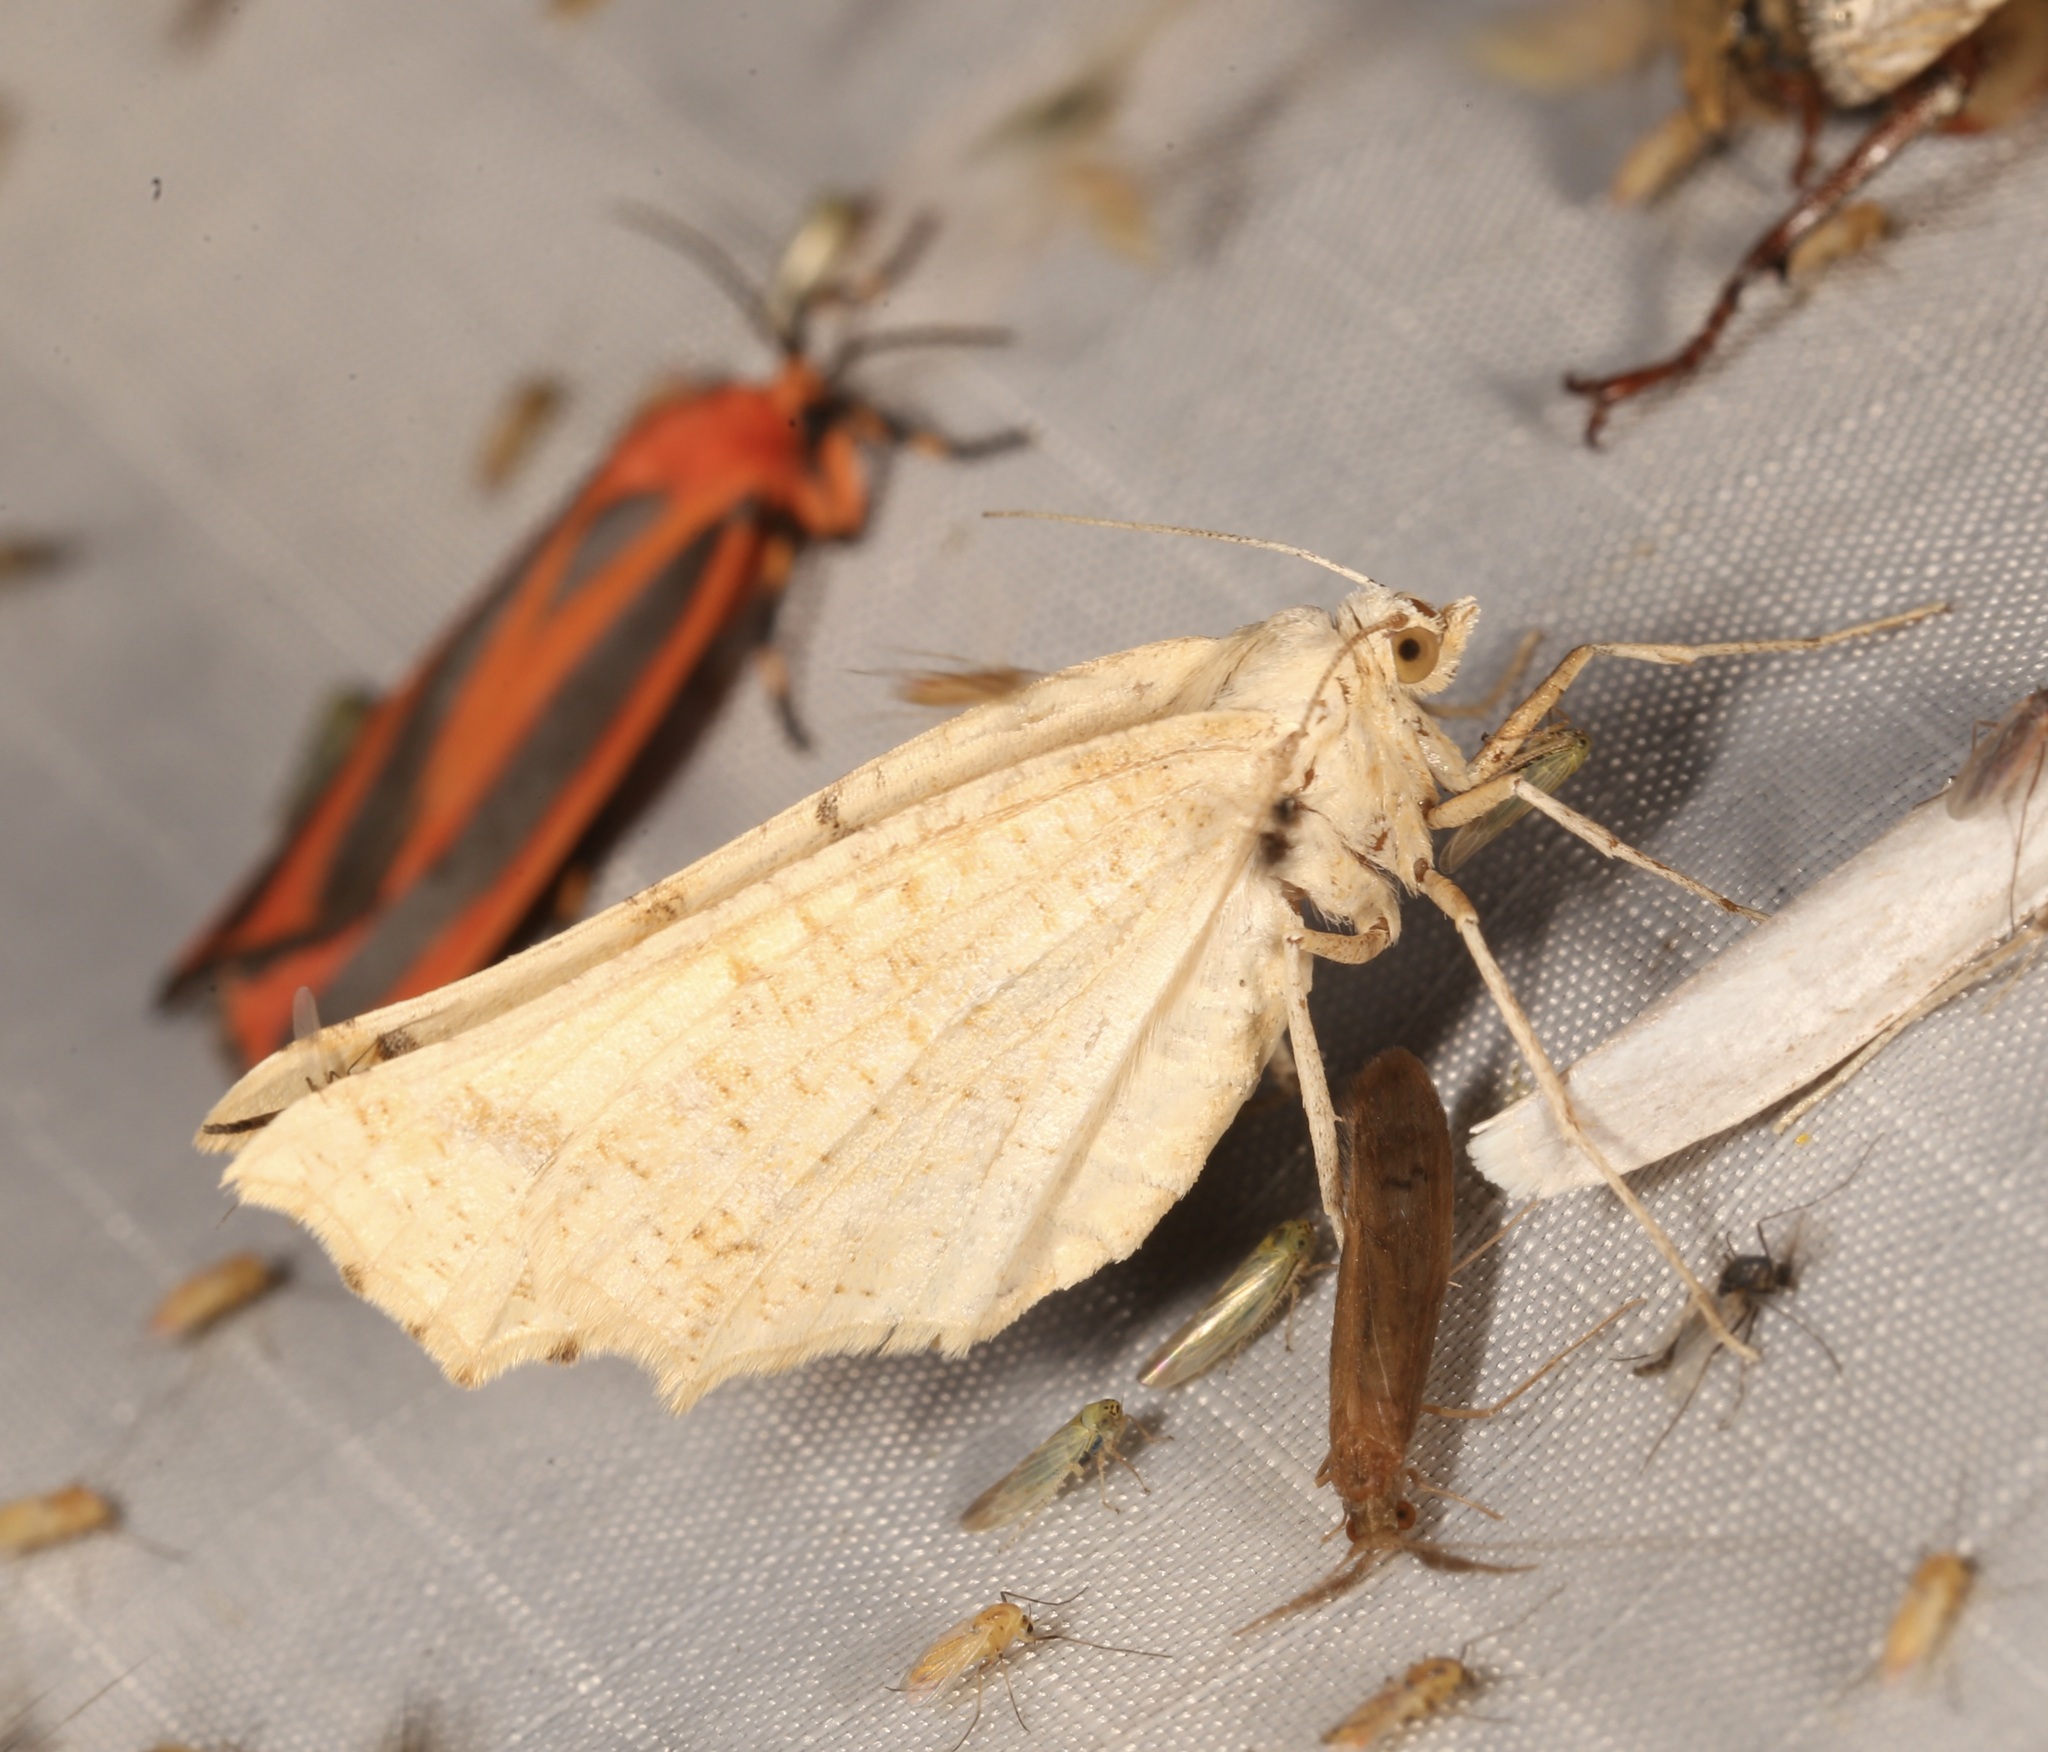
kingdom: Animalia
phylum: Arthropoda
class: Insecta
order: Lepidoptera
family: Geometridae
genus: Eriplatymetra
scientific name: Eriplatymetra coloradaria
